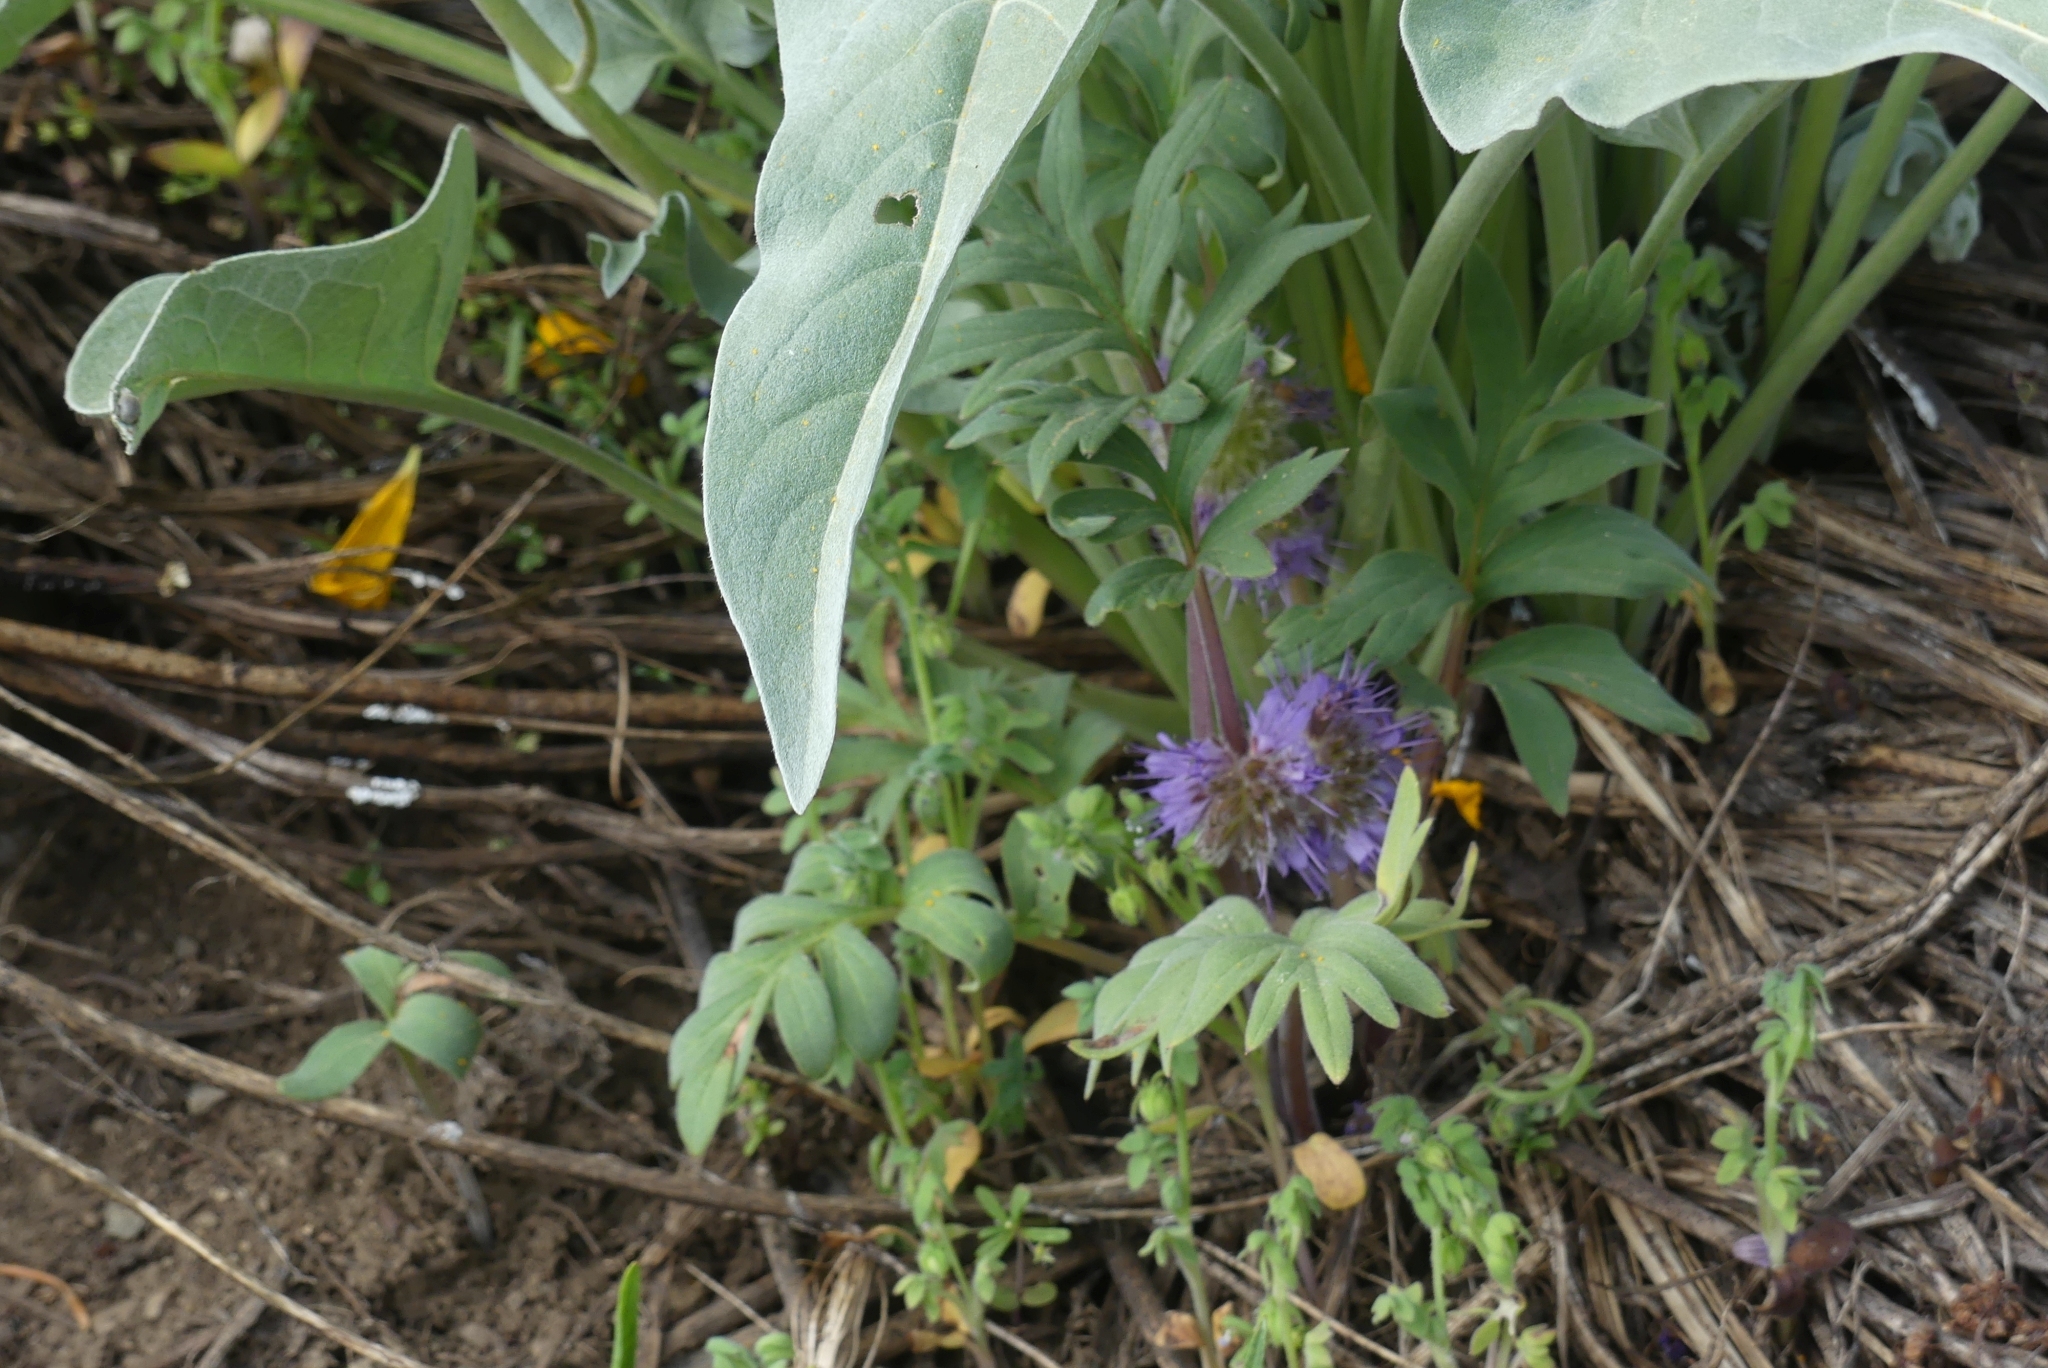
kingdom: Plantae
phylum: Tracheophyta
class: Magnoliopsida
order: Boraginales
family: Hydrophyllaceae
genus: Hydrophyllum
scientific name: Hydrophyllum capitatum
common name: Woollen-breeches
